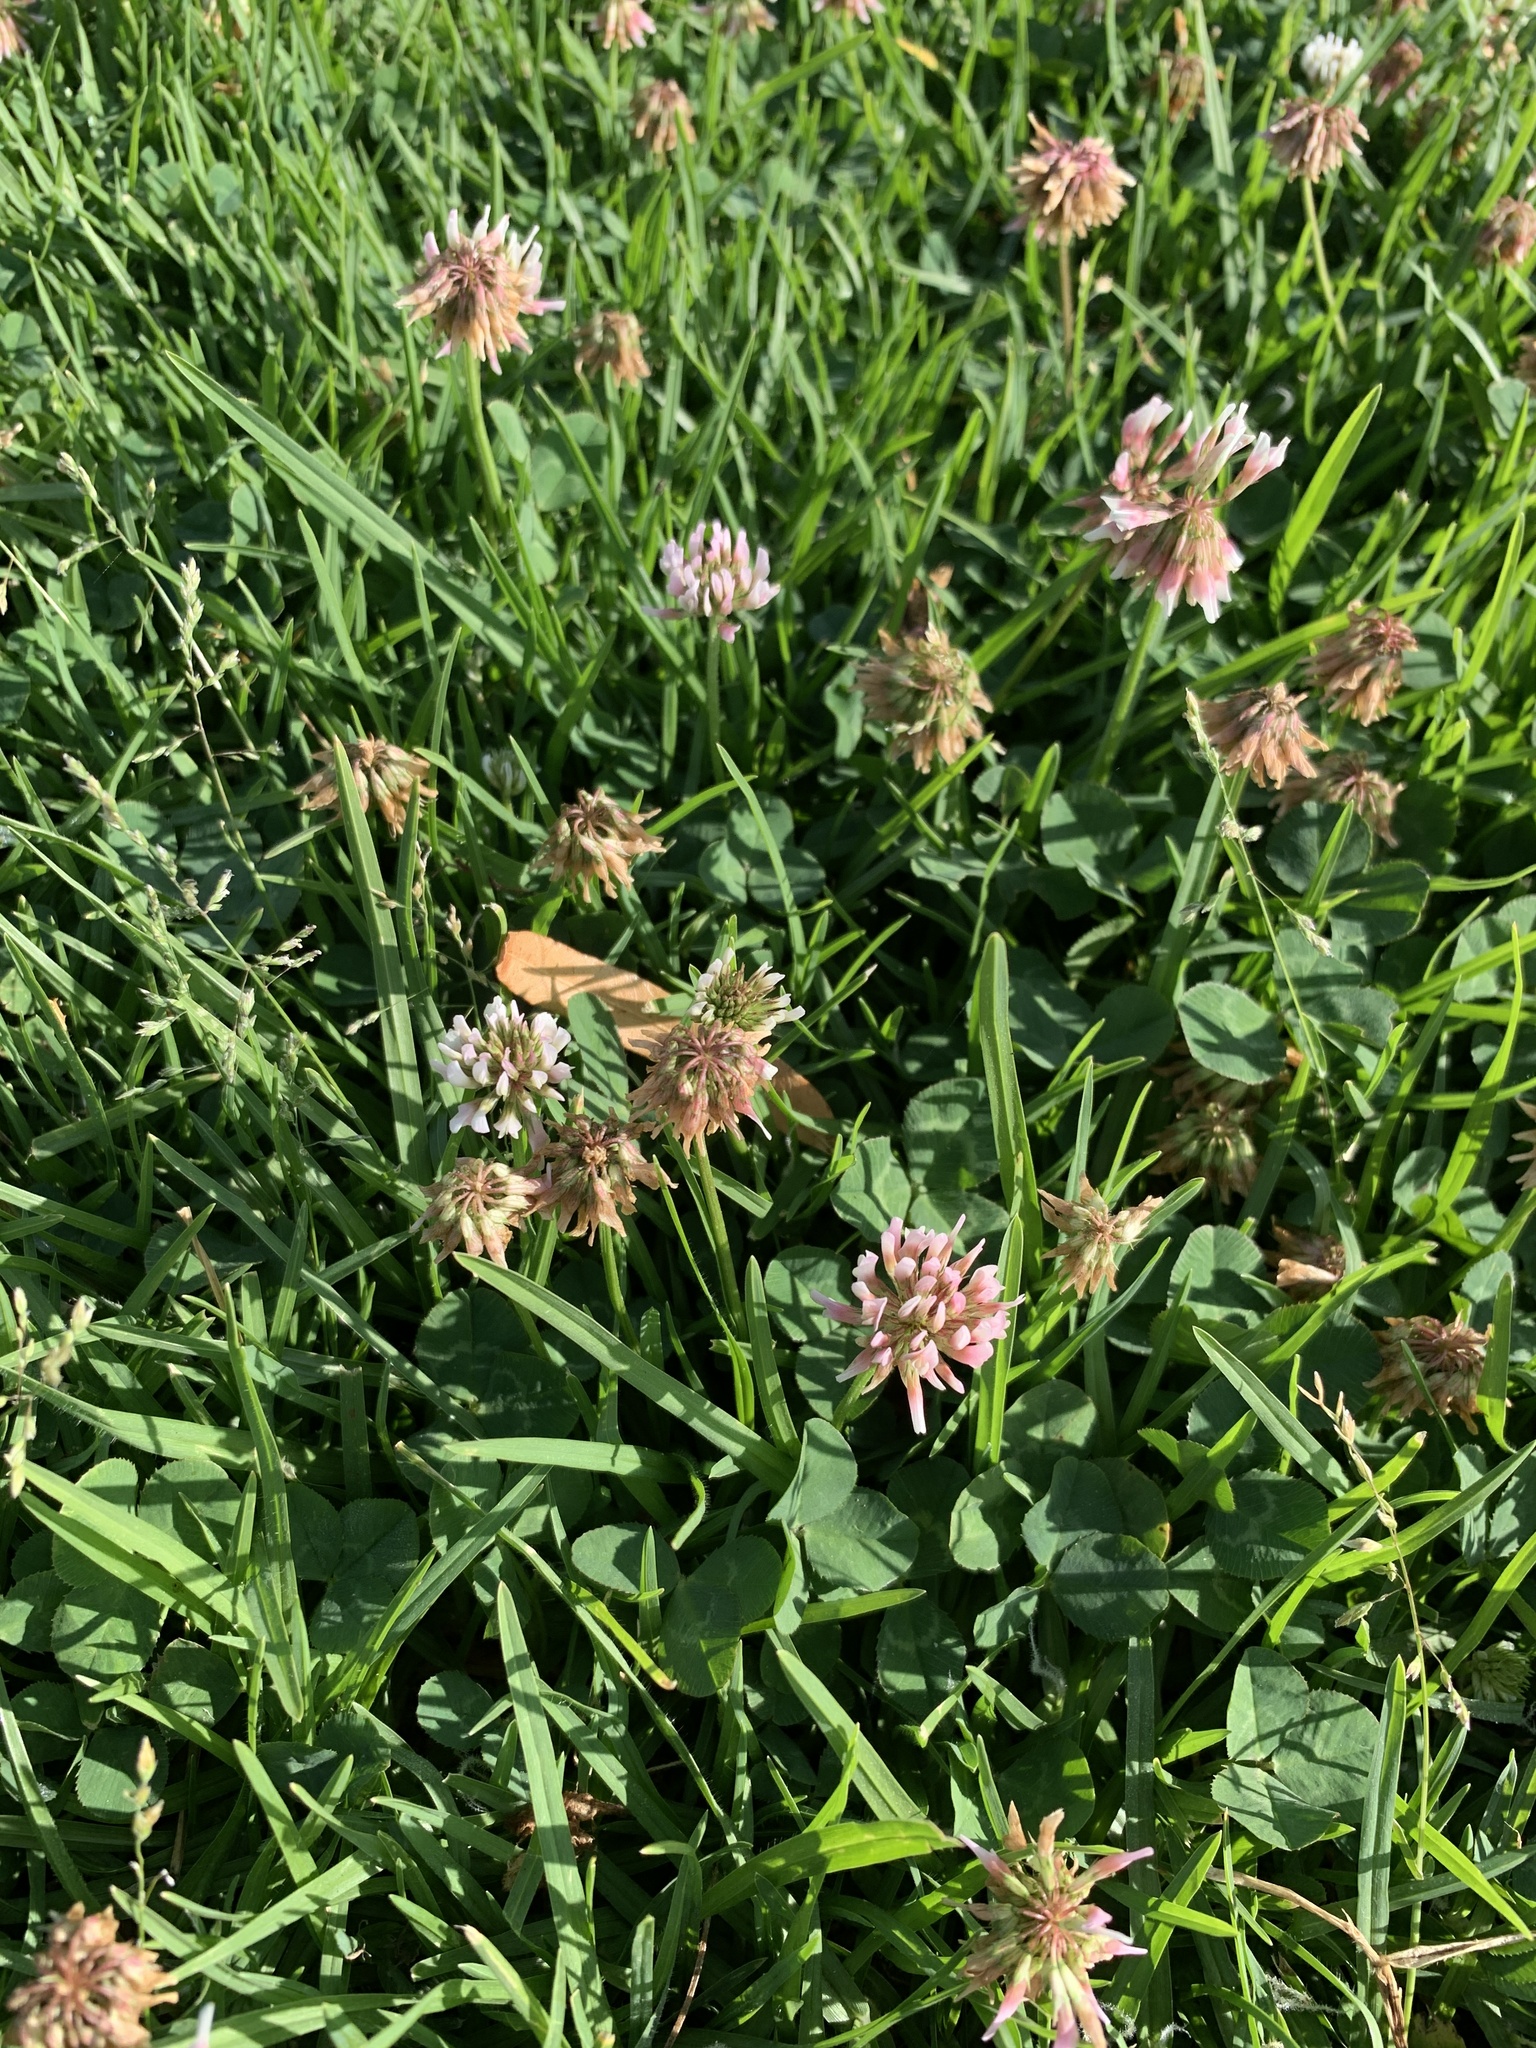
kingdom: Plantae
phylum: Tracheophyta
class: Magnoliopsida
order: Fabales
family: Fabaceae
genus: Trifolium
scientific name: Trifolium repens
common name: White clover
